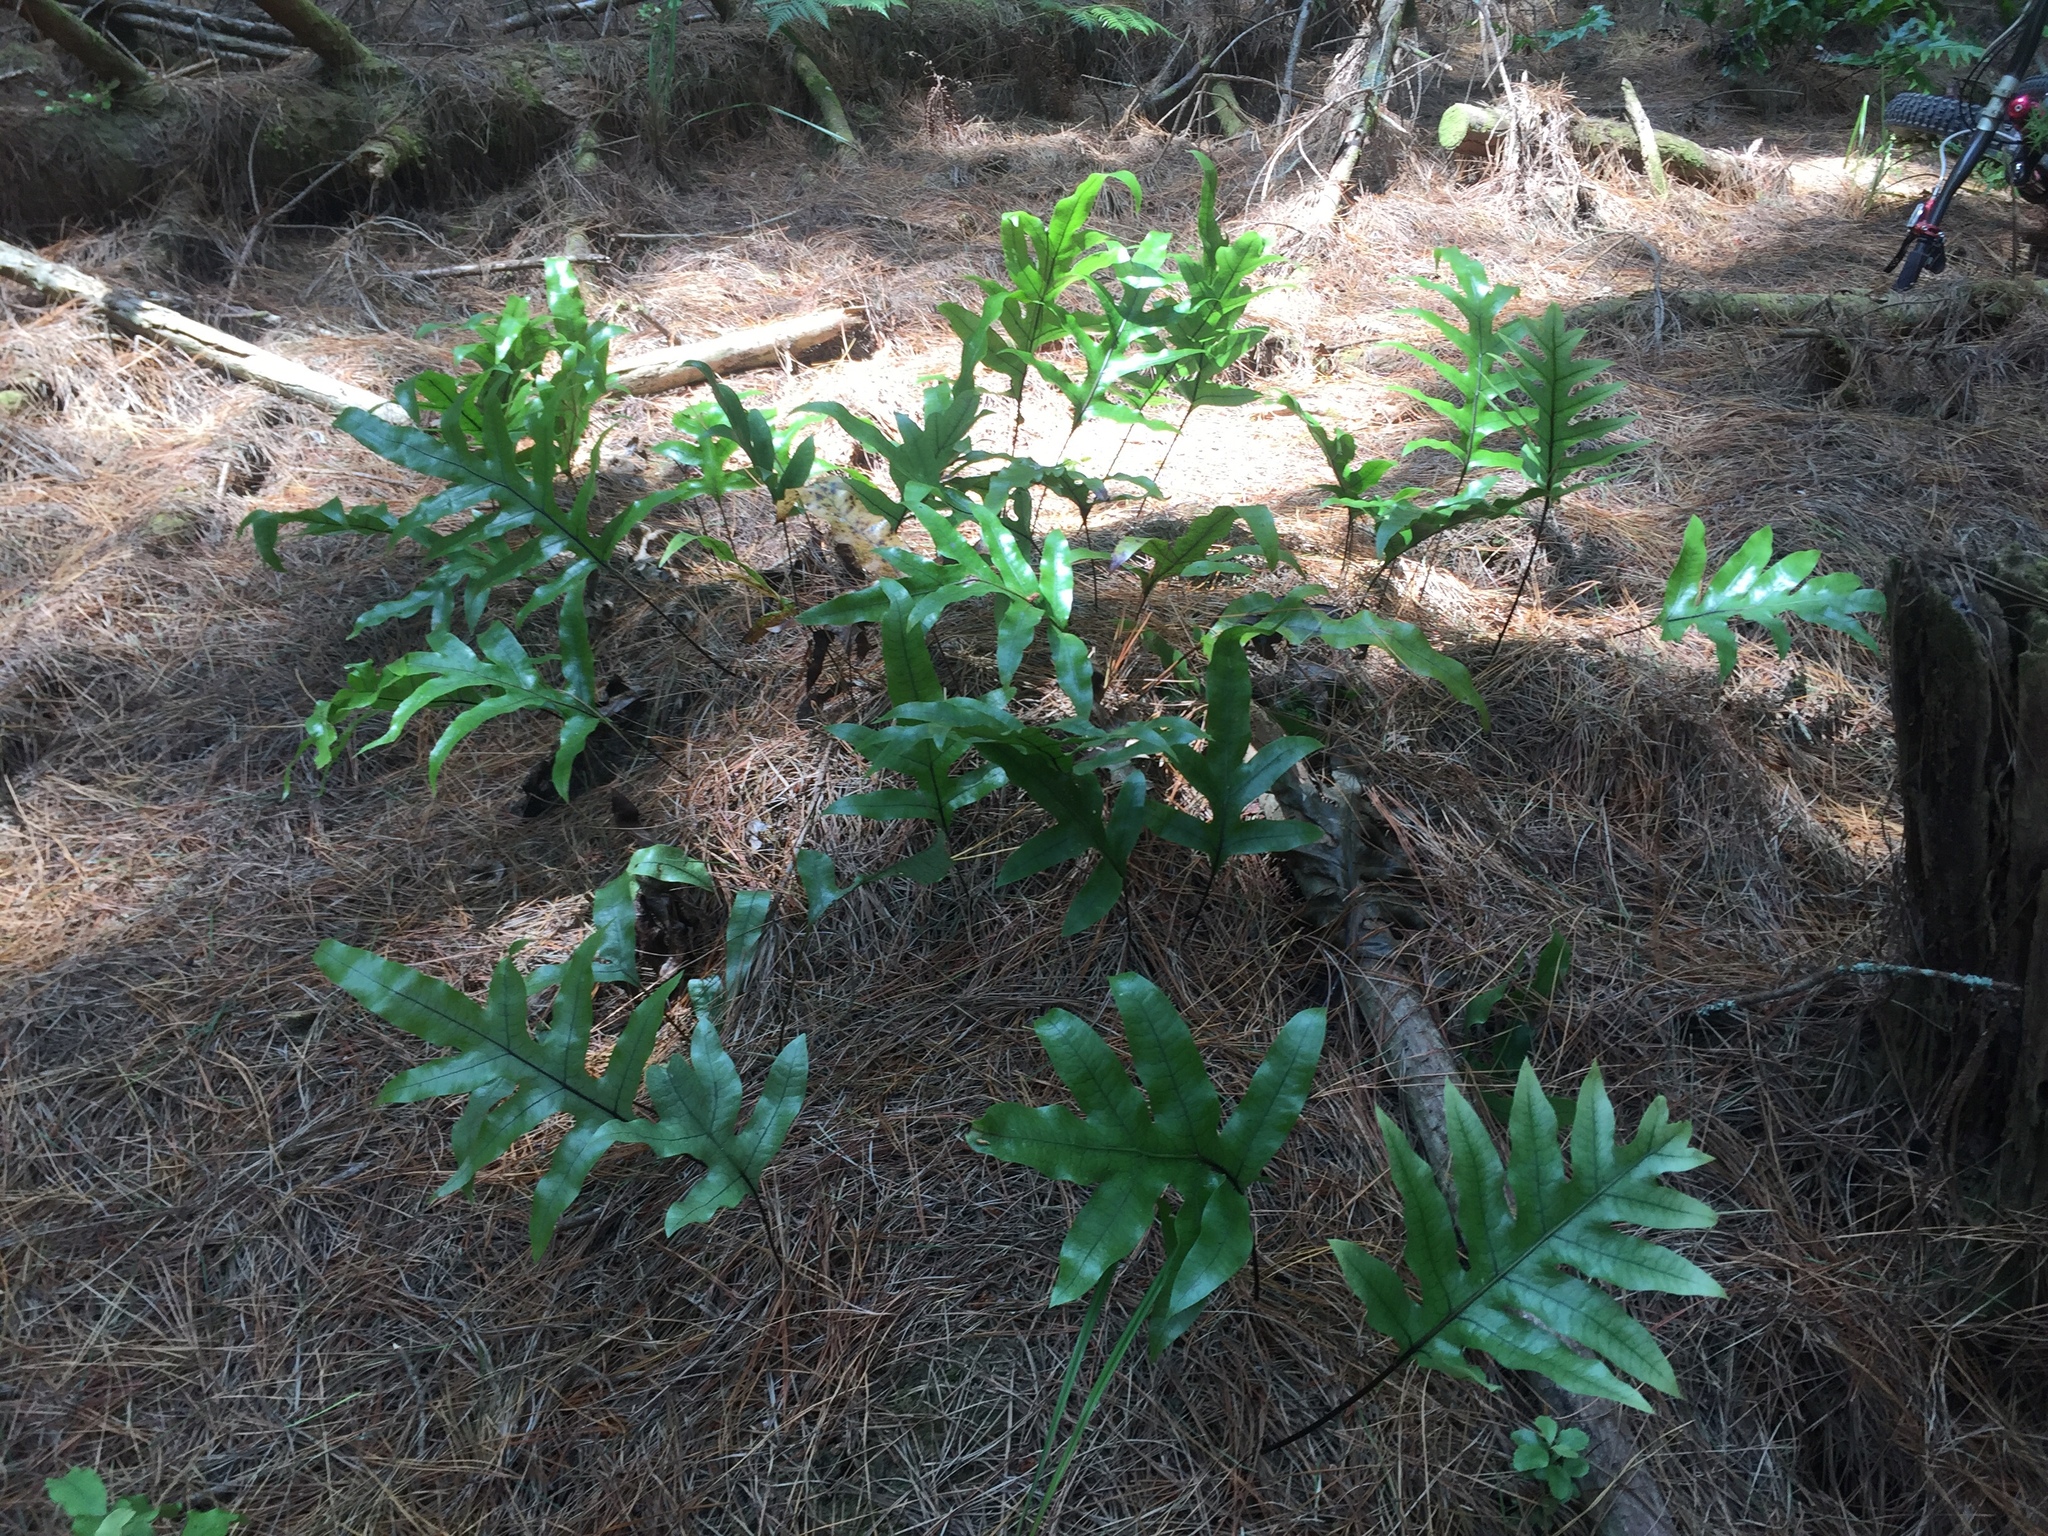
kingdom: Plantae
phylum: Tracheophyta
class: Polypodiopsida
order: Polypodiales
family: Polypodiaceae
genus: Lecanopteris
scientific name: Lecanopteris pustulata
